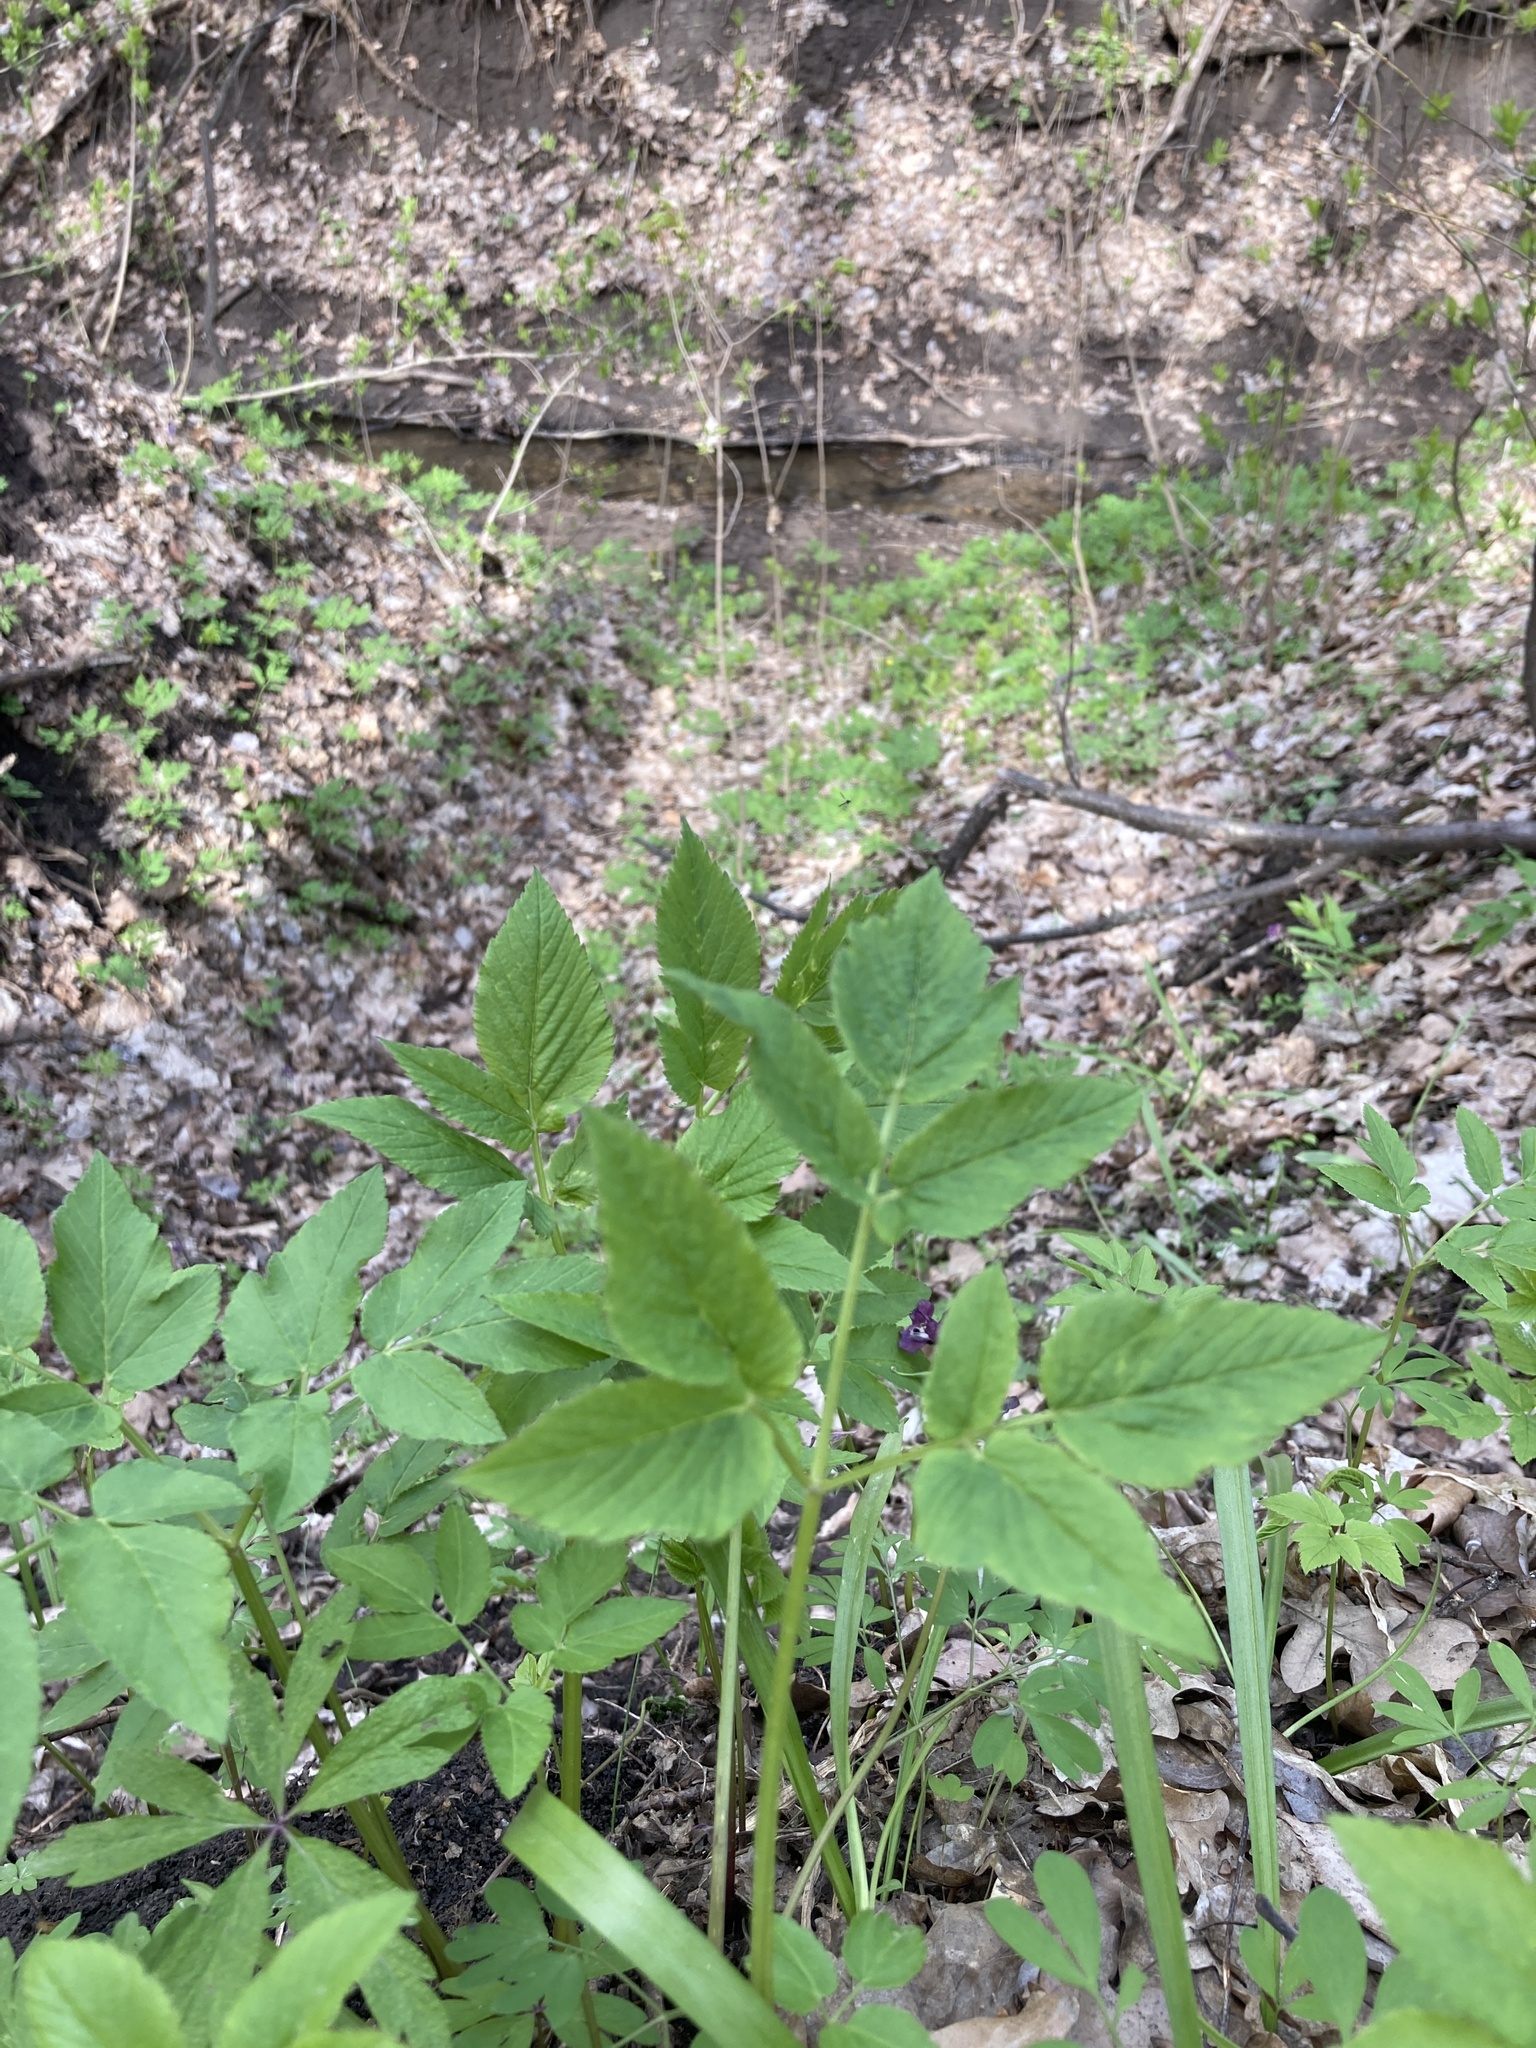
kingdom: Plantae
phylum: Tracheophyta
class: Magnoliopsida
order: Apiales
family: Apiaceae
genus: Aegopodium
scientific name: Aegopodium podagraria
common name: Ground-elder
